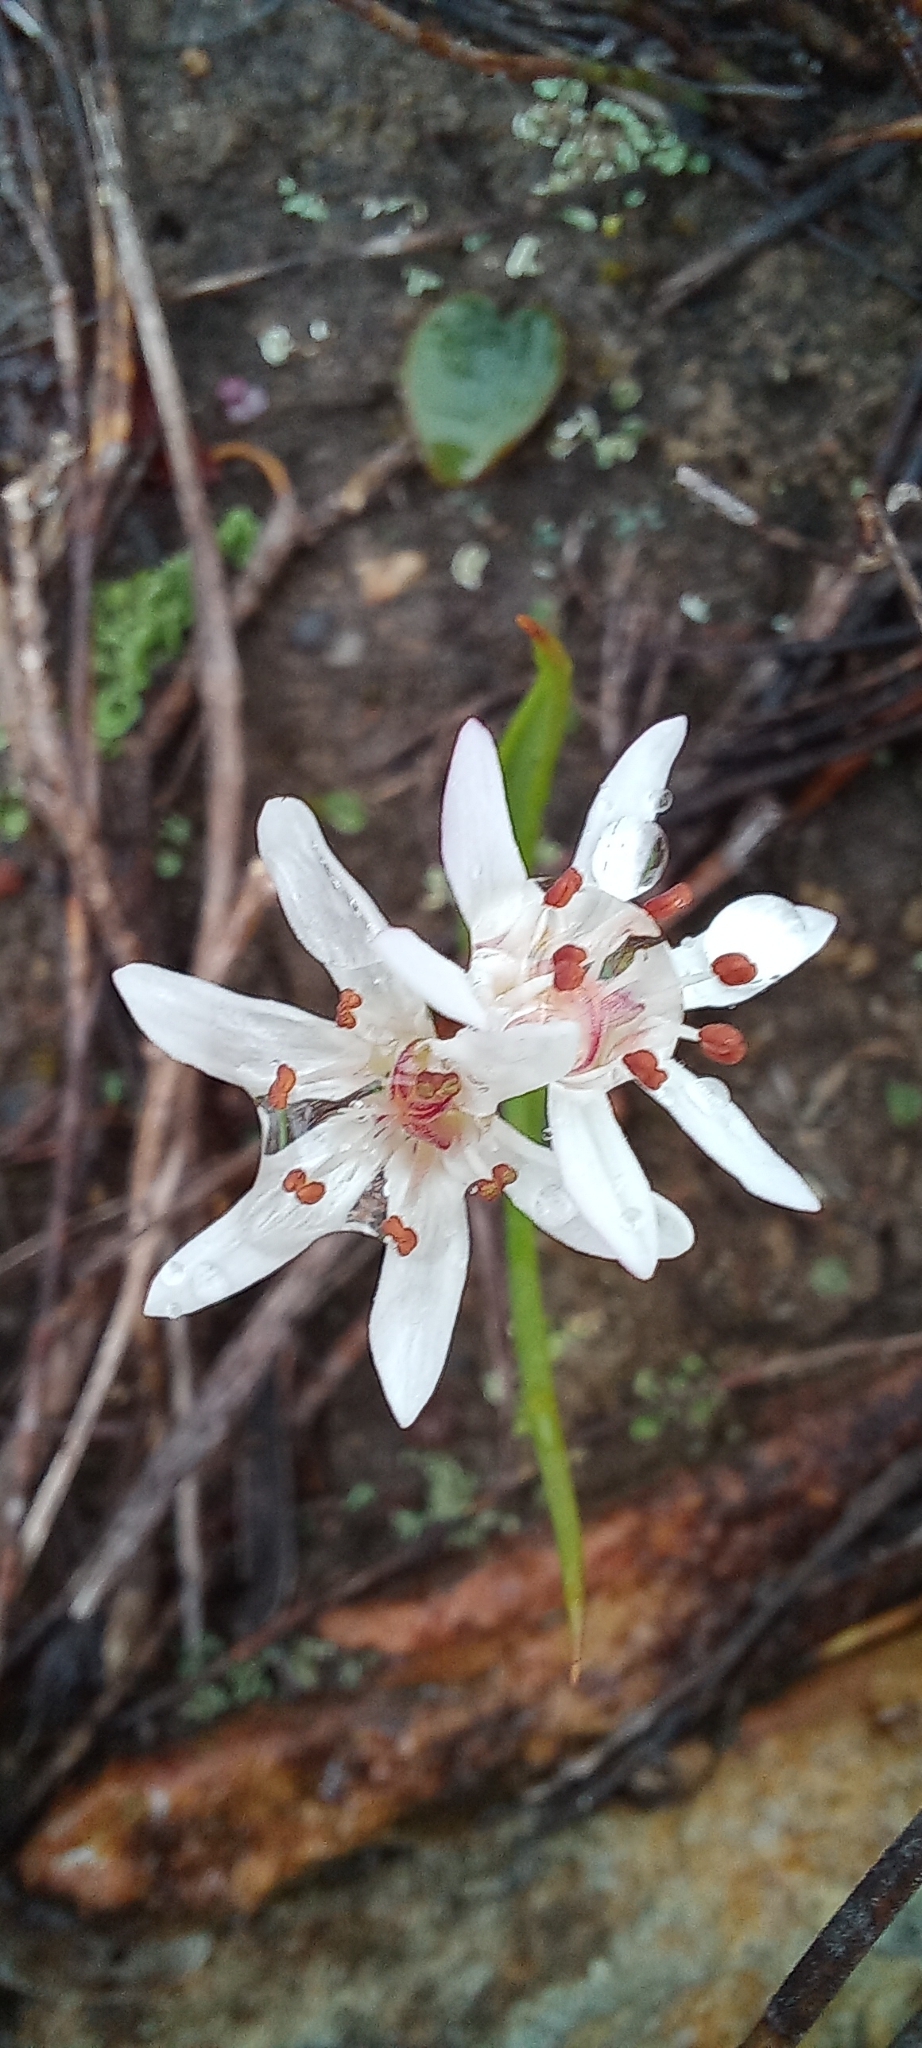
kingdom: Plantae
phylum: Tracheophyta
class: Liliopsida
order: Liliales
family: Colchicaceae
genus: Wurmbea
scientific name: Wurmbea punctata
